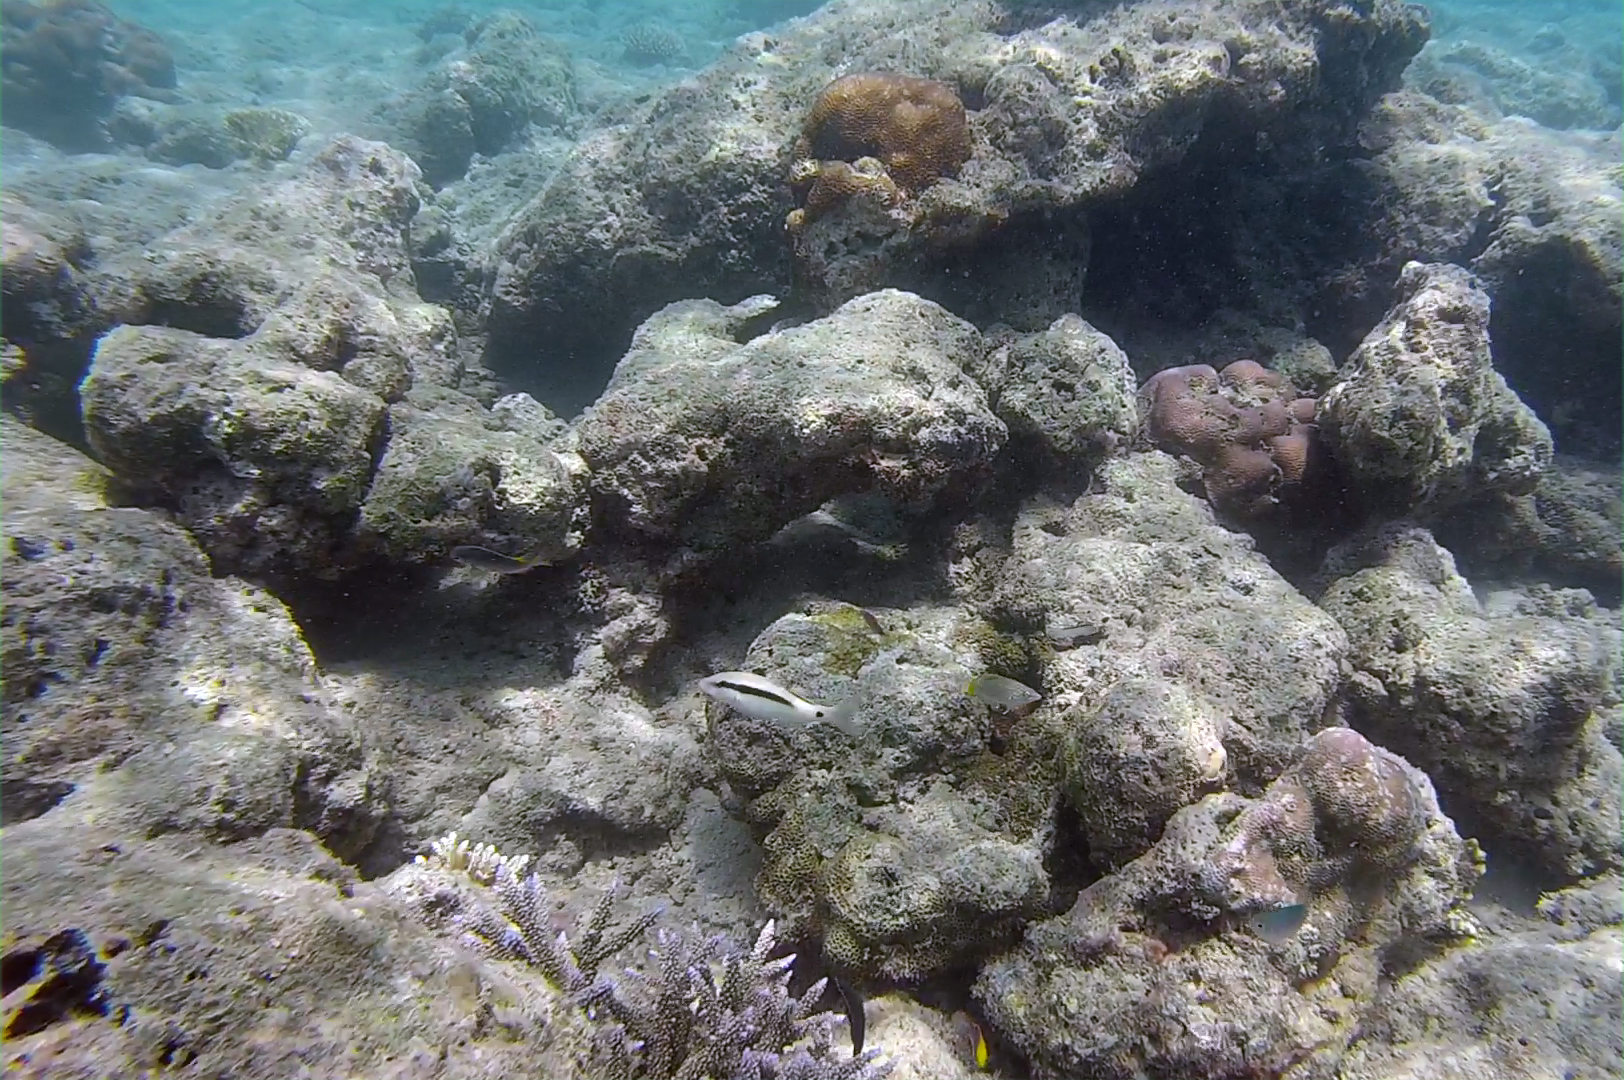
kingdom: Animalia
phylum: Chordata
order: Perciformes
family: Mullidae
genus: Parupeneus
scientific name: Parupeneus macronemus
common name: Long-barbel goatfish
